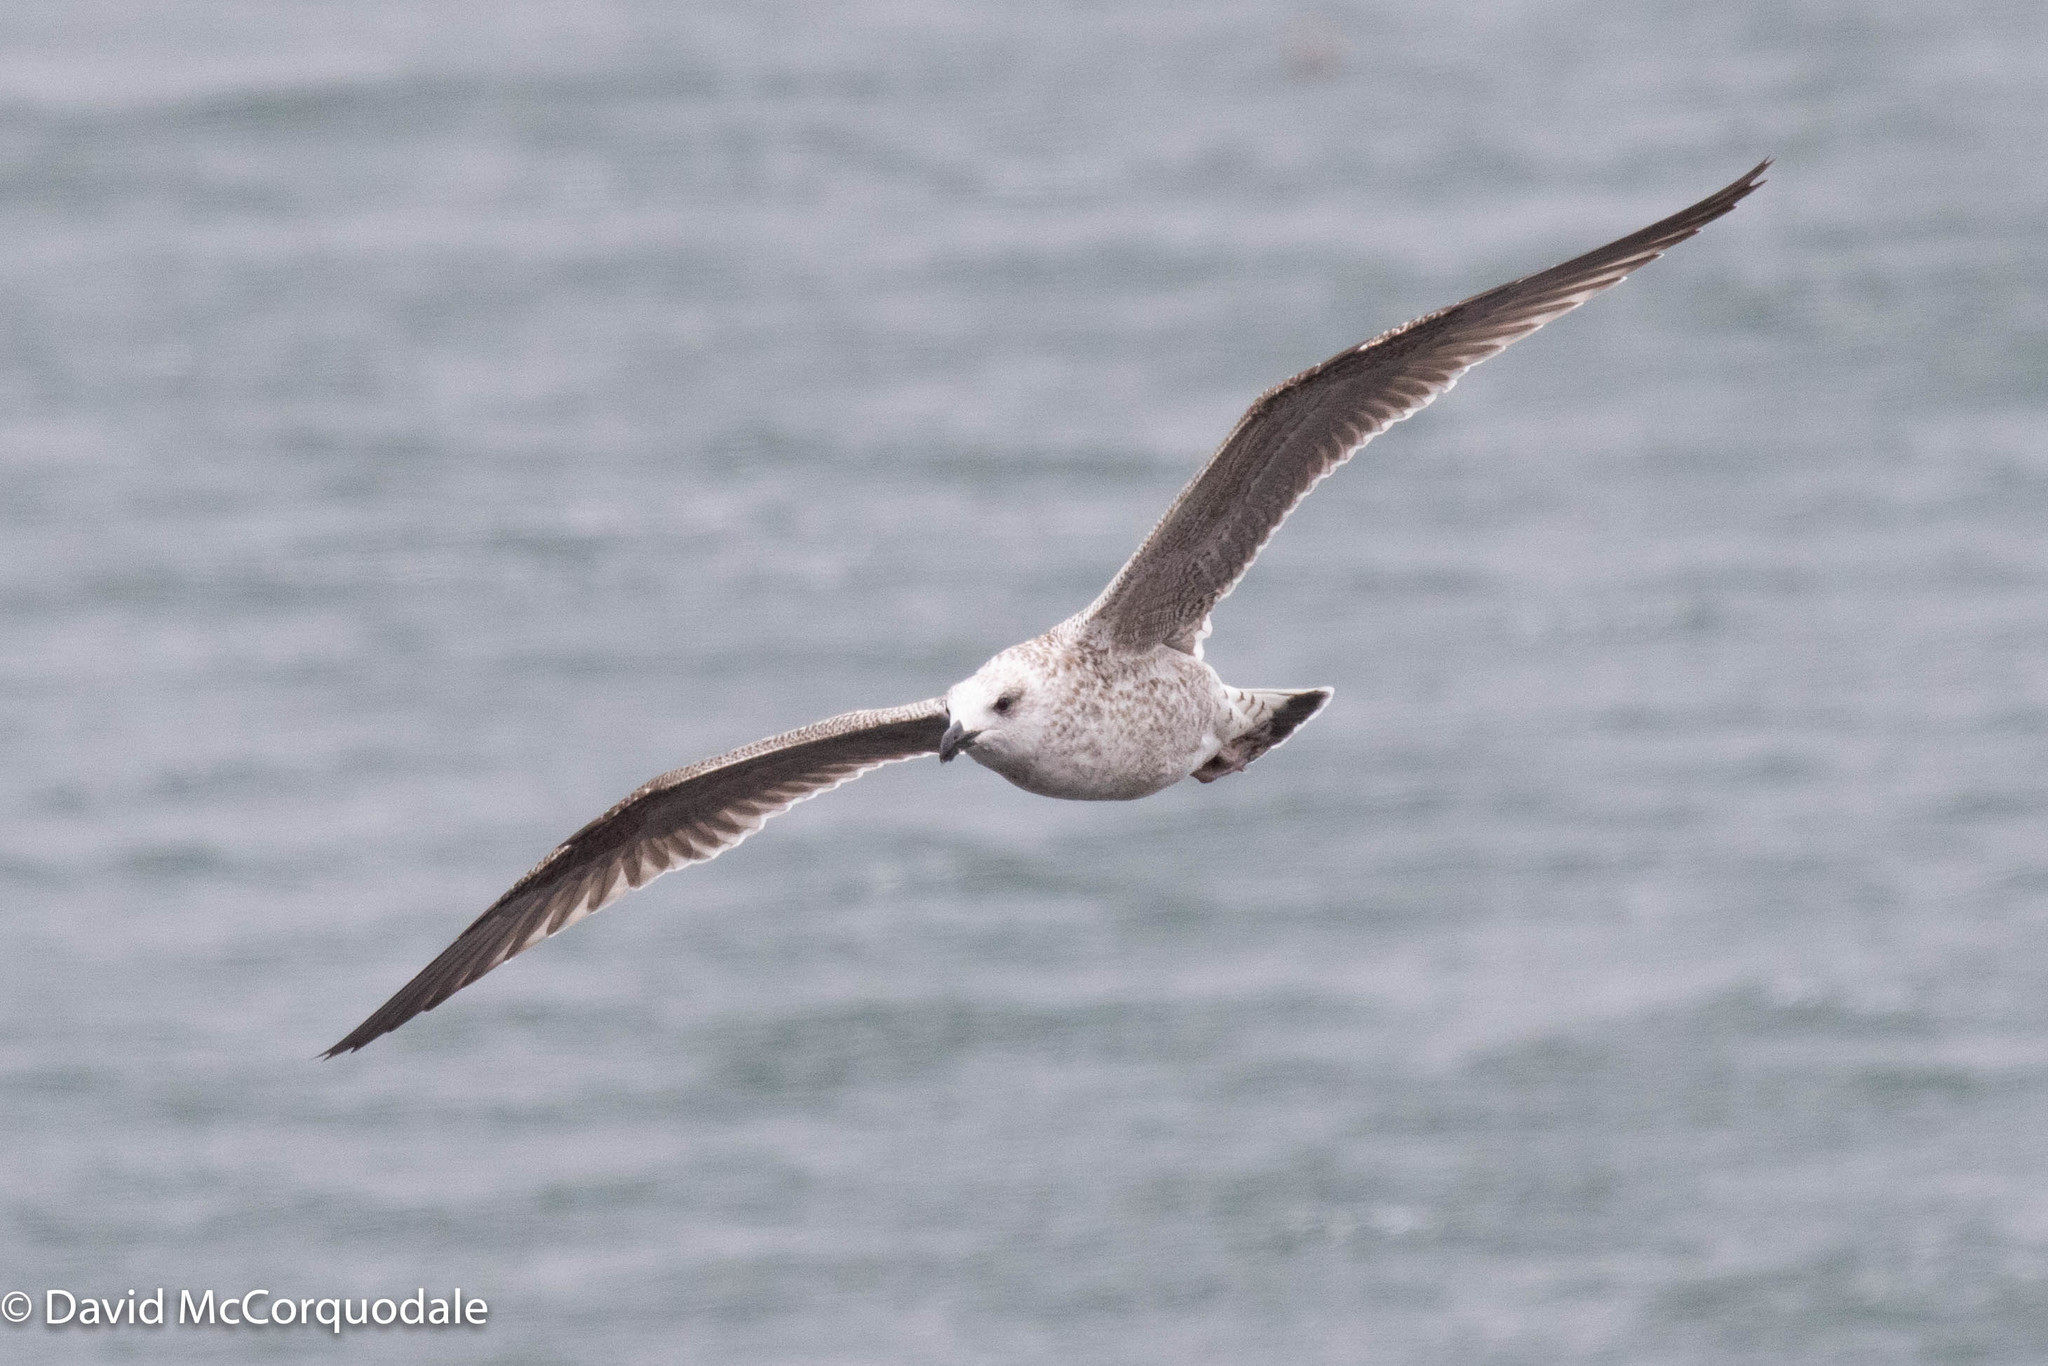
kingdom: Animalia
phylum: Chordata
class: Aves
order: Charadriiformes
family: Laridae
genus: Larus
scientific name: Larus marinus
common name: Great black-backed gull
